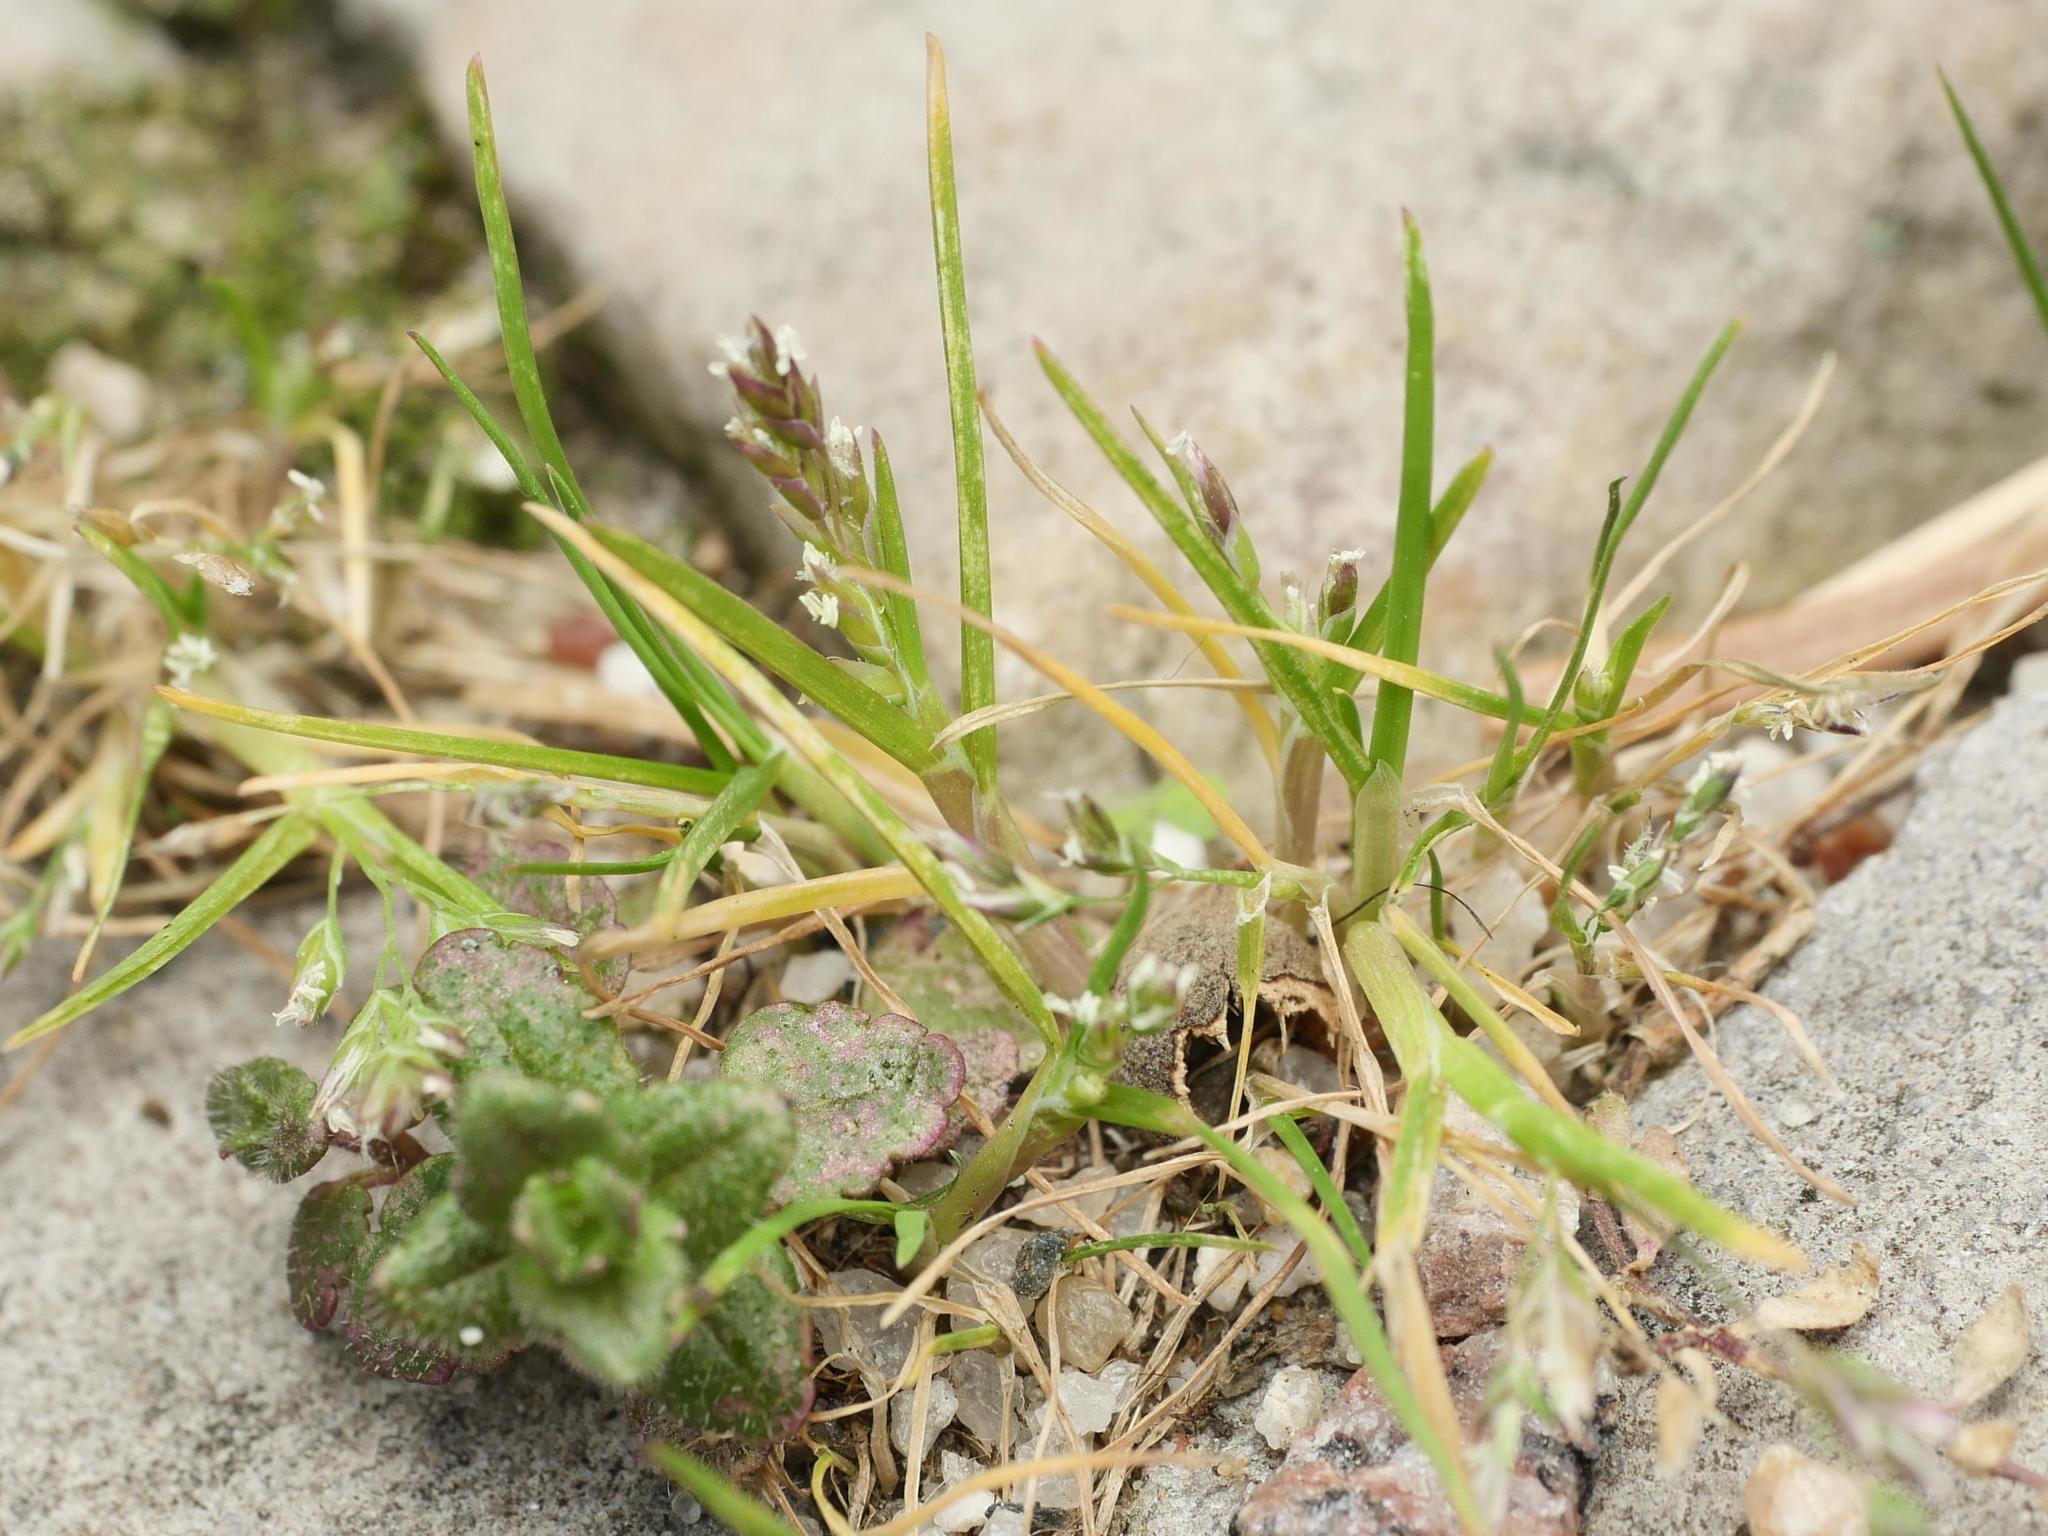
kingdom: Plantae
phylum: Tracheophyta
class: Liliopsida
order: Poales
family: Poaceae
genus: Poa
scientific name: Poa annua
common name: Annual bluegrass
